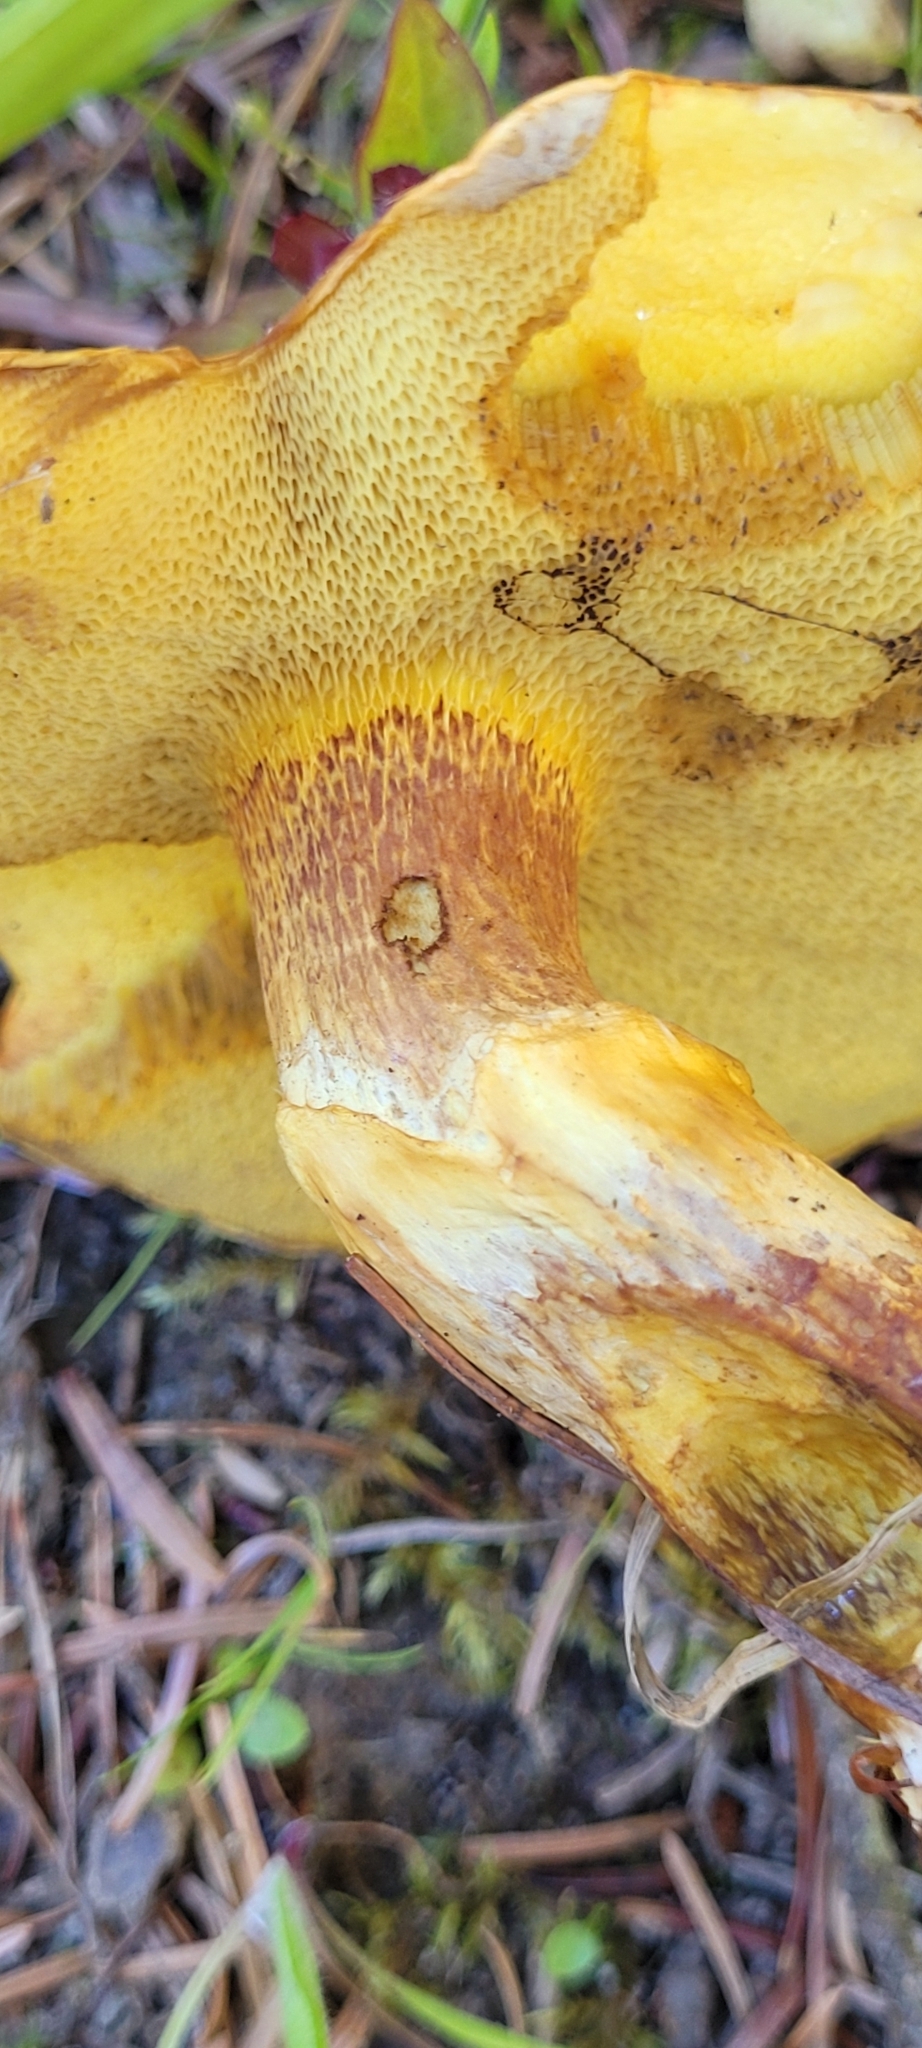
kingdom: Fungi
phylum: Basidiomycota
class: Agaricomycetes
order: Boletales
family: Suillaceae
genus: Suillus
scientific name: Suillus grevillei
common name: Larch bolete
